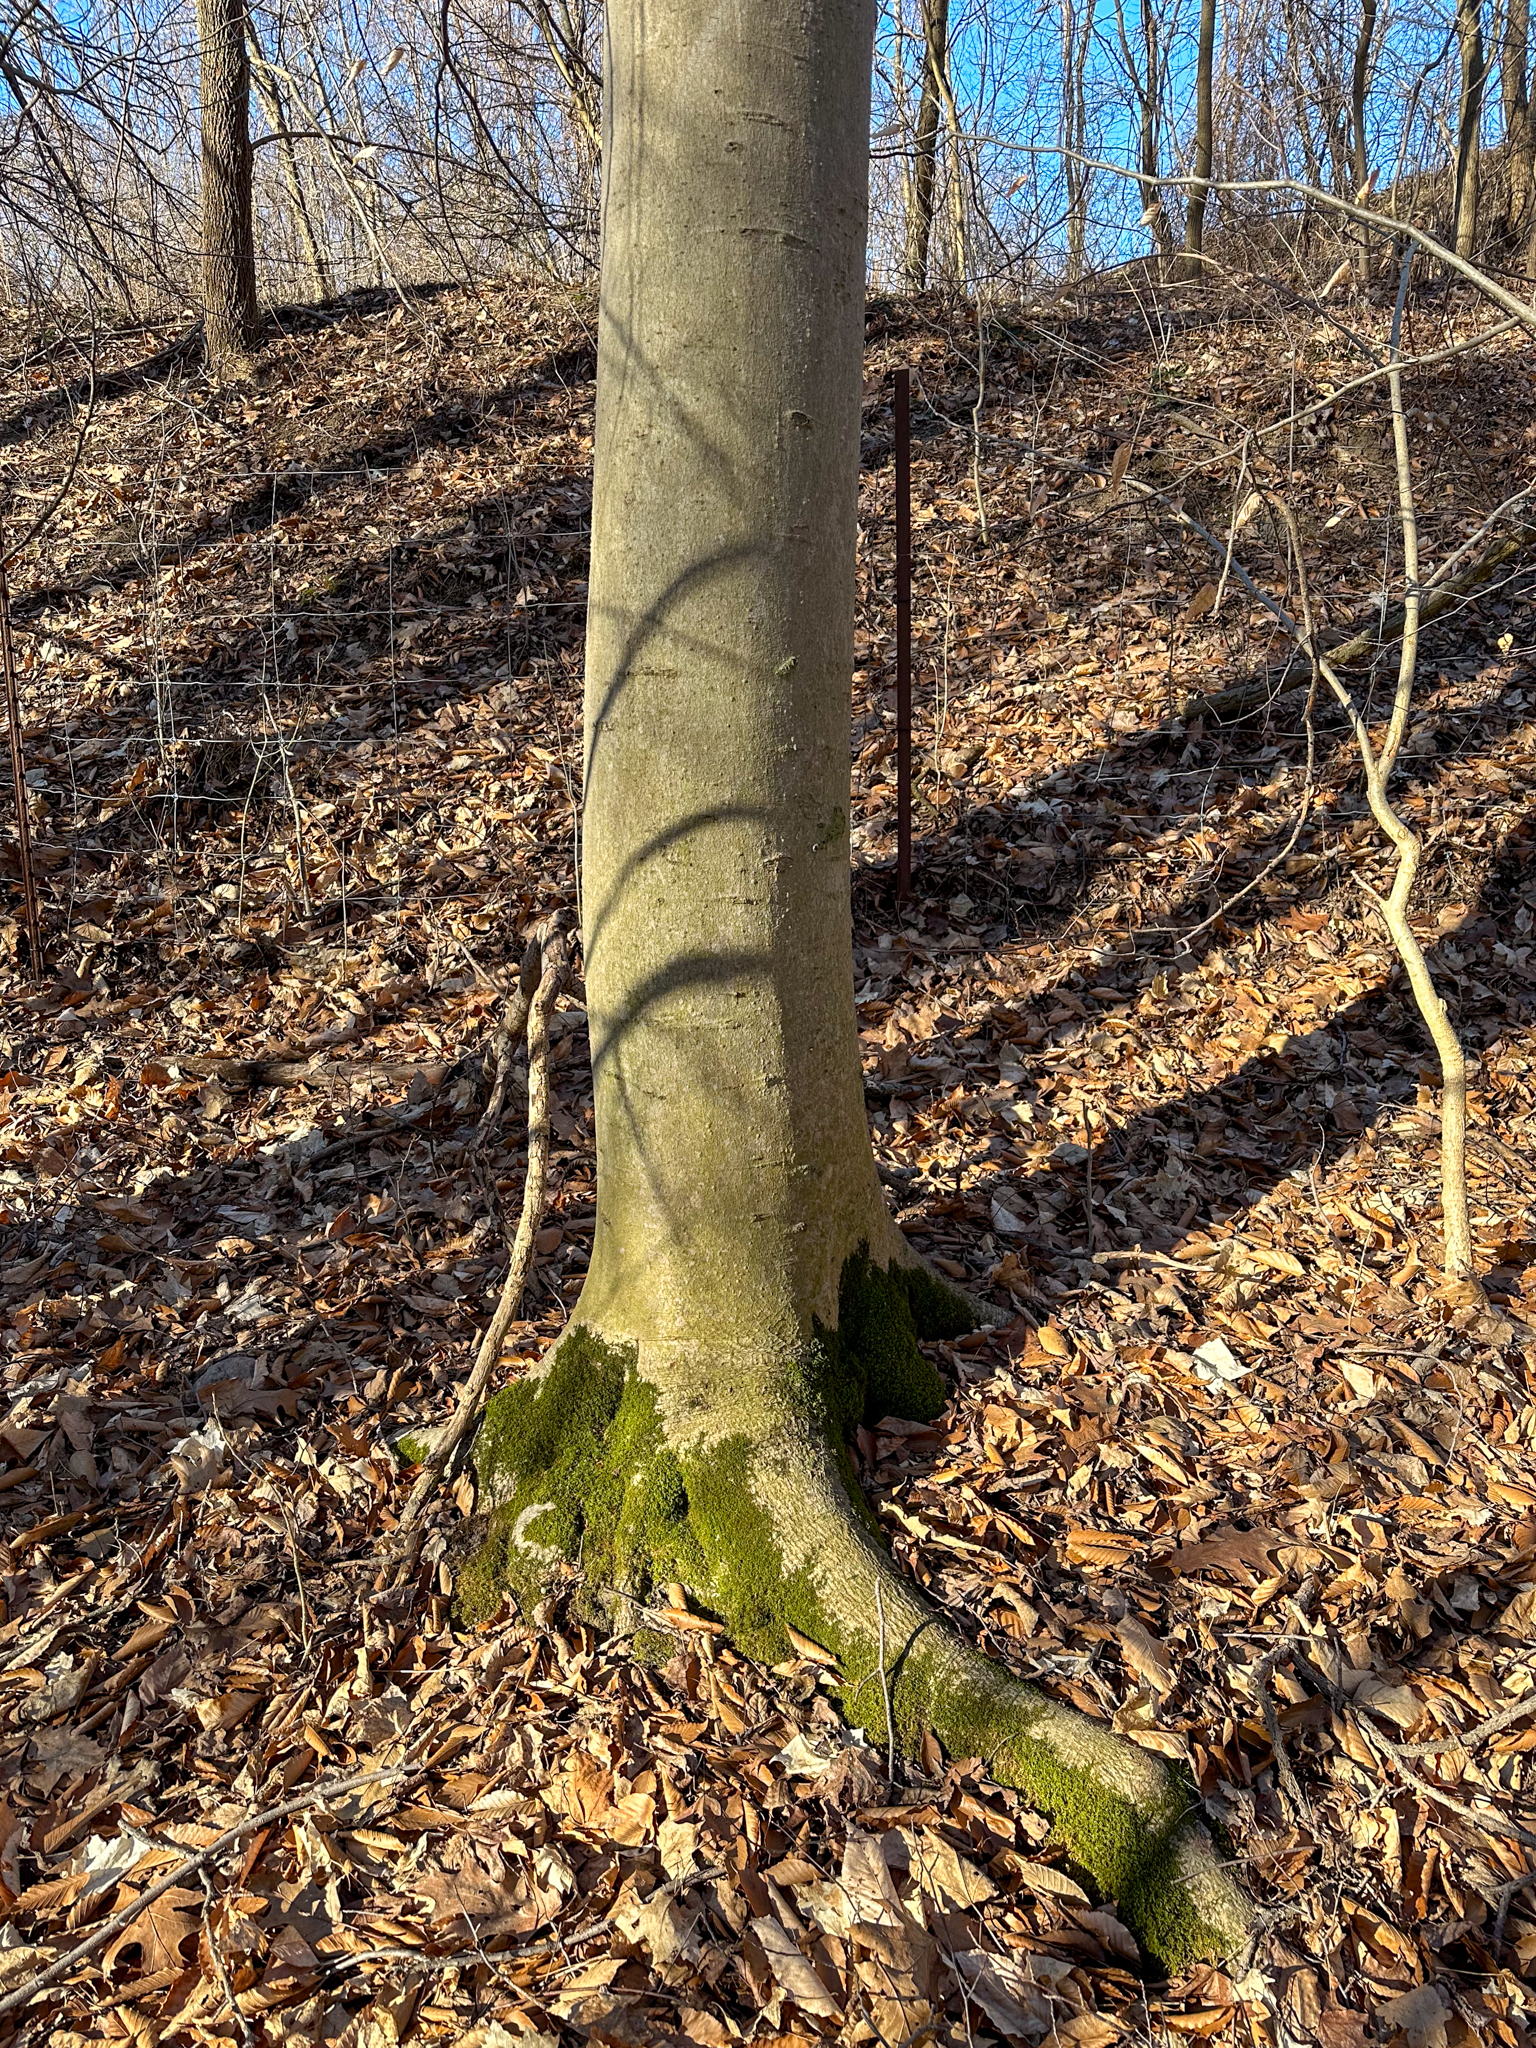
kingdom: Plantae
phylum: Tracheophyta
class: Magnoliopsida
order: Fagales
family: Fagaceae
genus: Fagus
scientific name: Fagus grandifolia
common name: American beech
